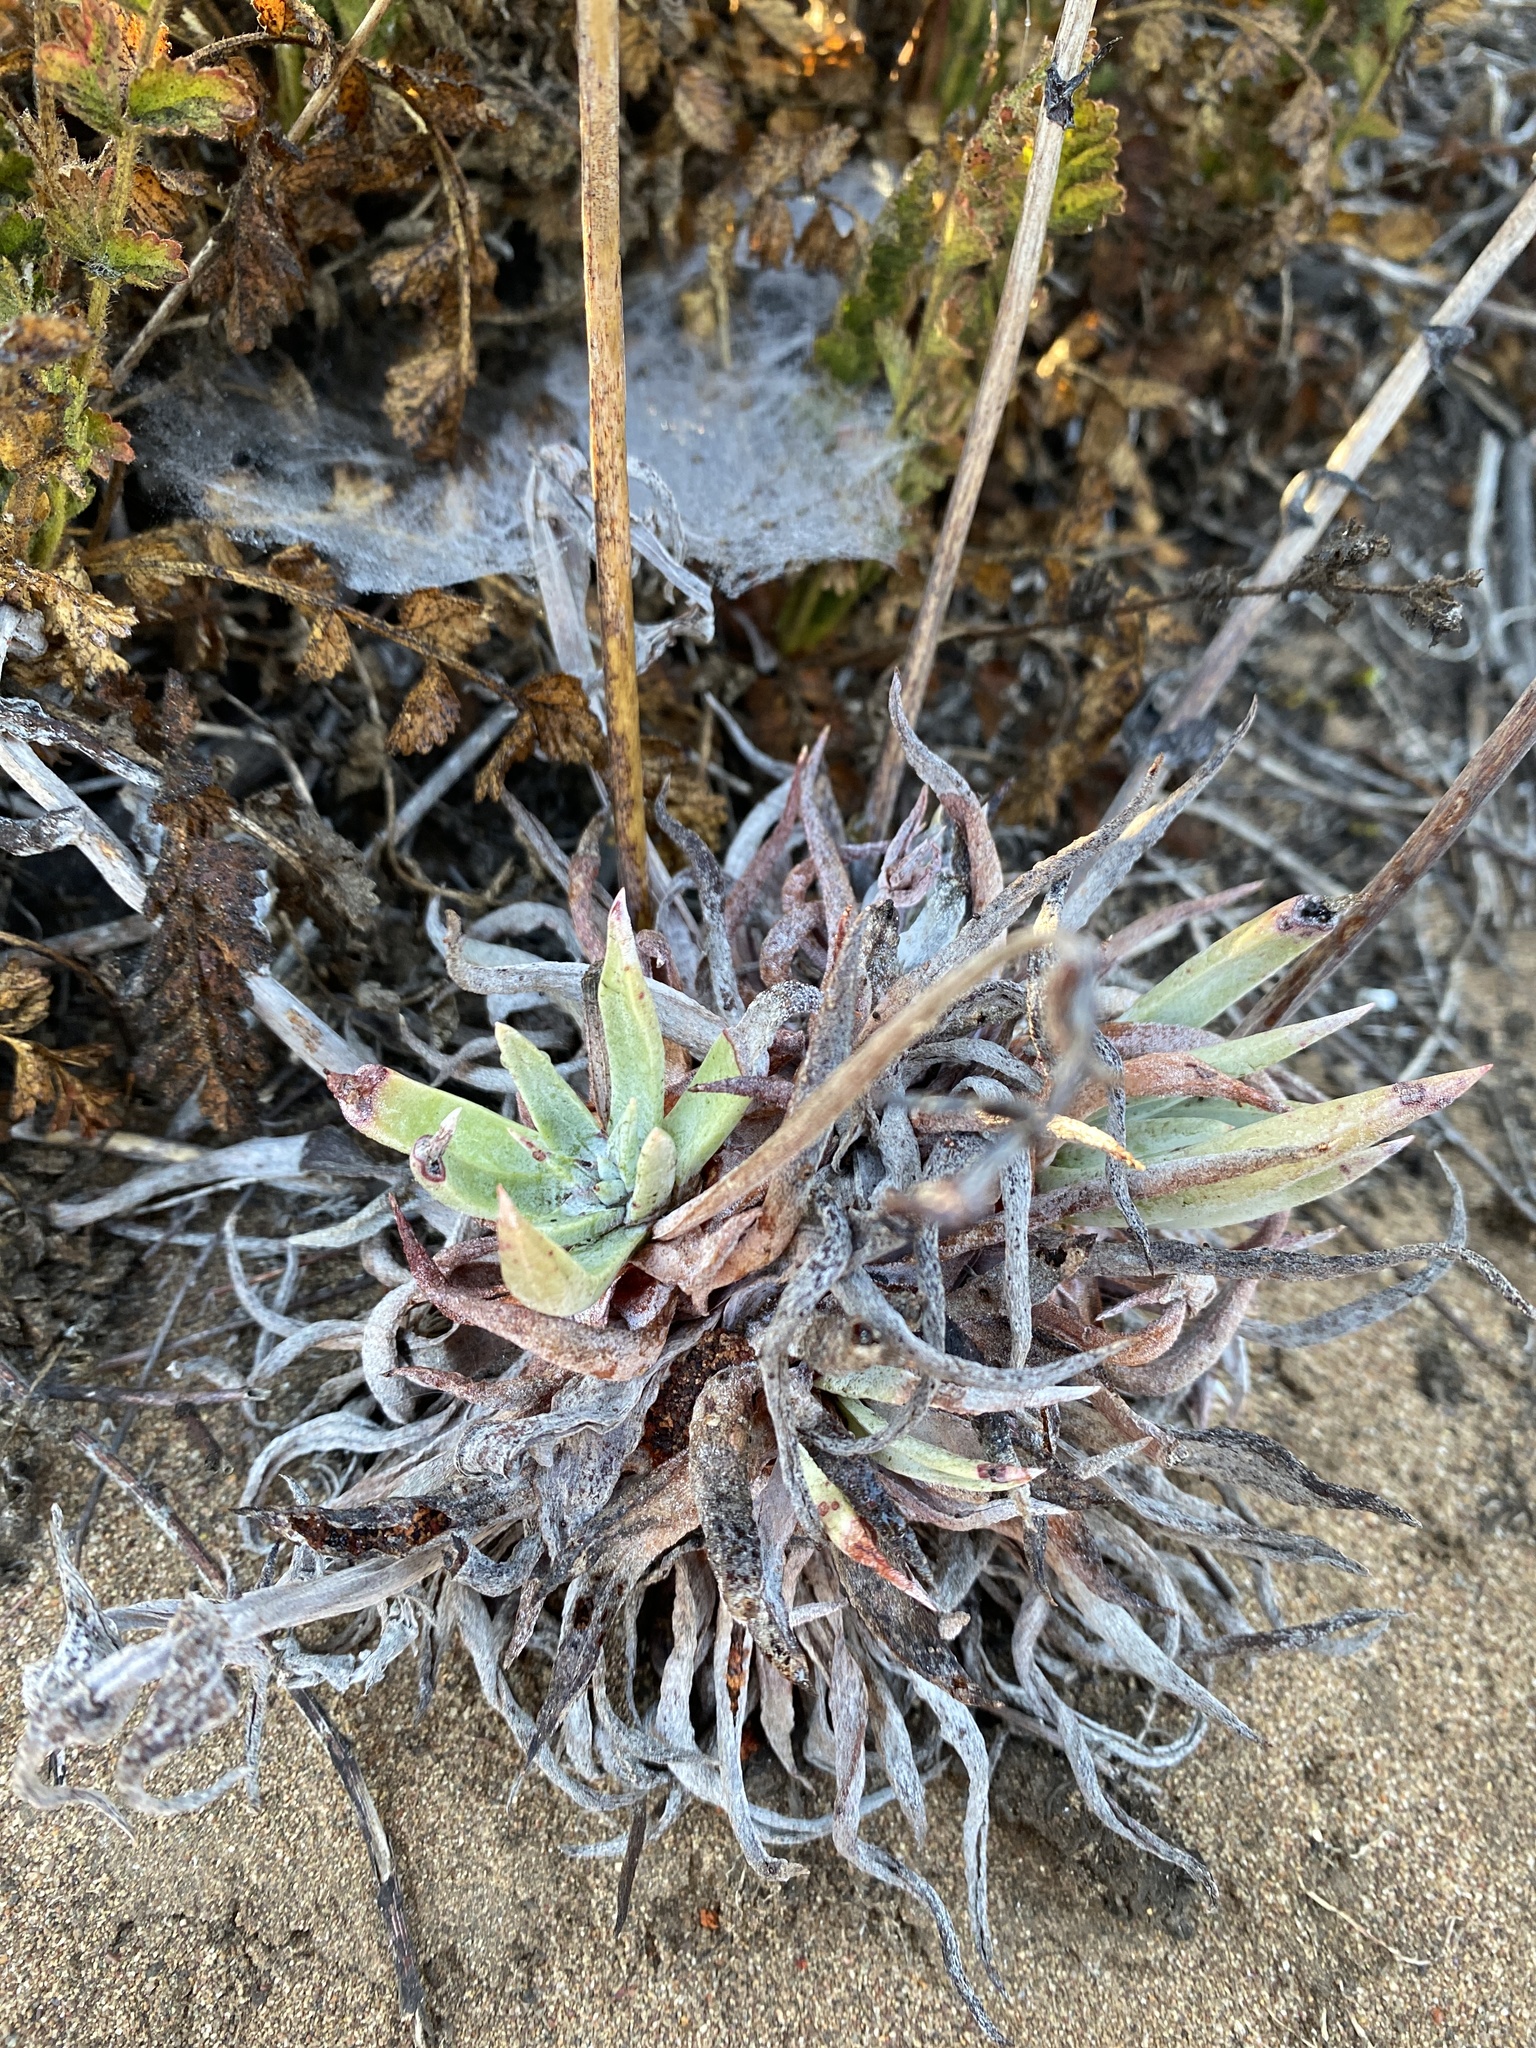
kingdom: Plantae
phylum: Tracheophyta
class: Magnoliopsida
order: Saxifragales
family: Crassulaceae
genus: Dudleya
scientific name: Dudleya lanceolata
